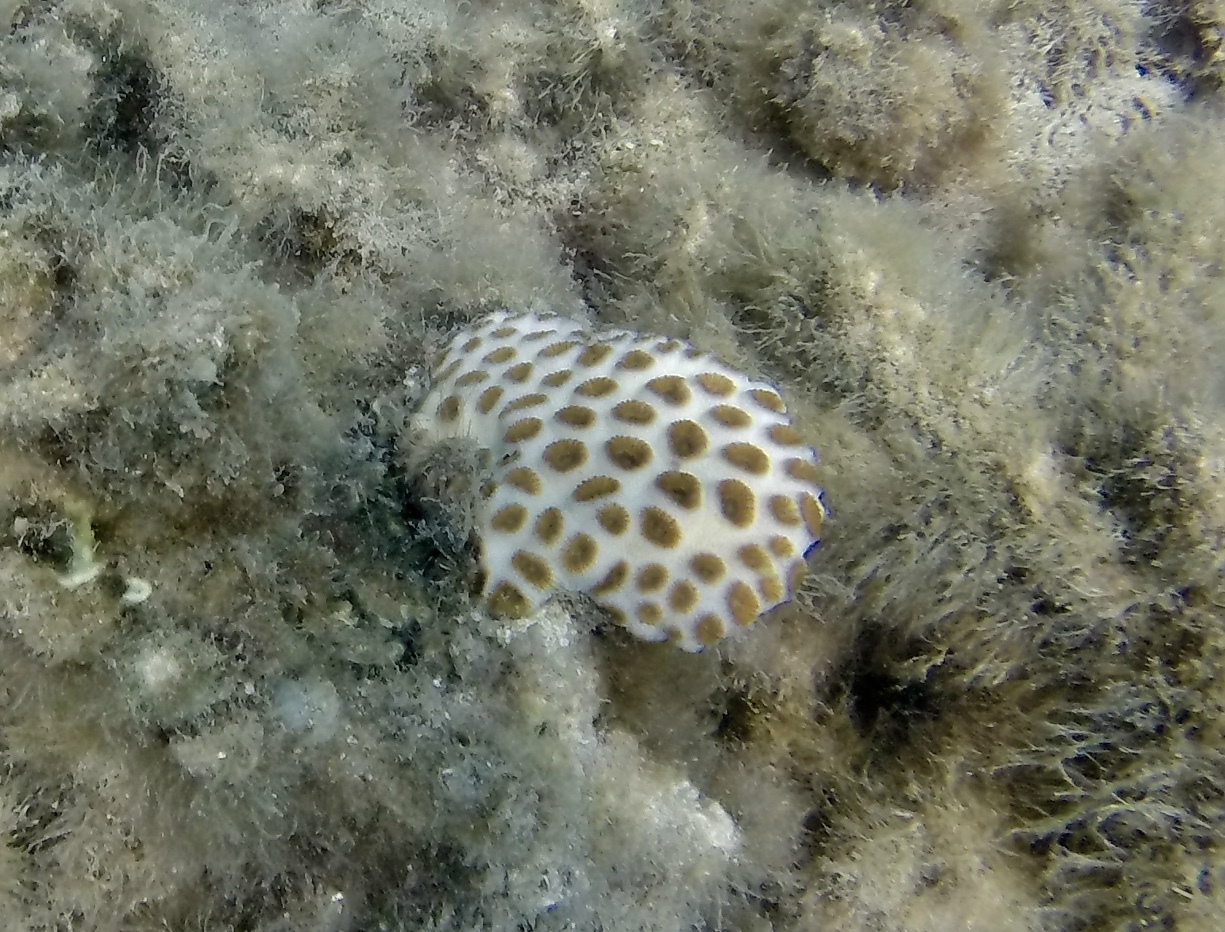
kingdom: Animalia
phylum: Cnidaria
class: Anthozoa
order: Zoantharia
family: Sphenopidae
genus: Palythoa
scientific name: Palythoa tuberculosa
